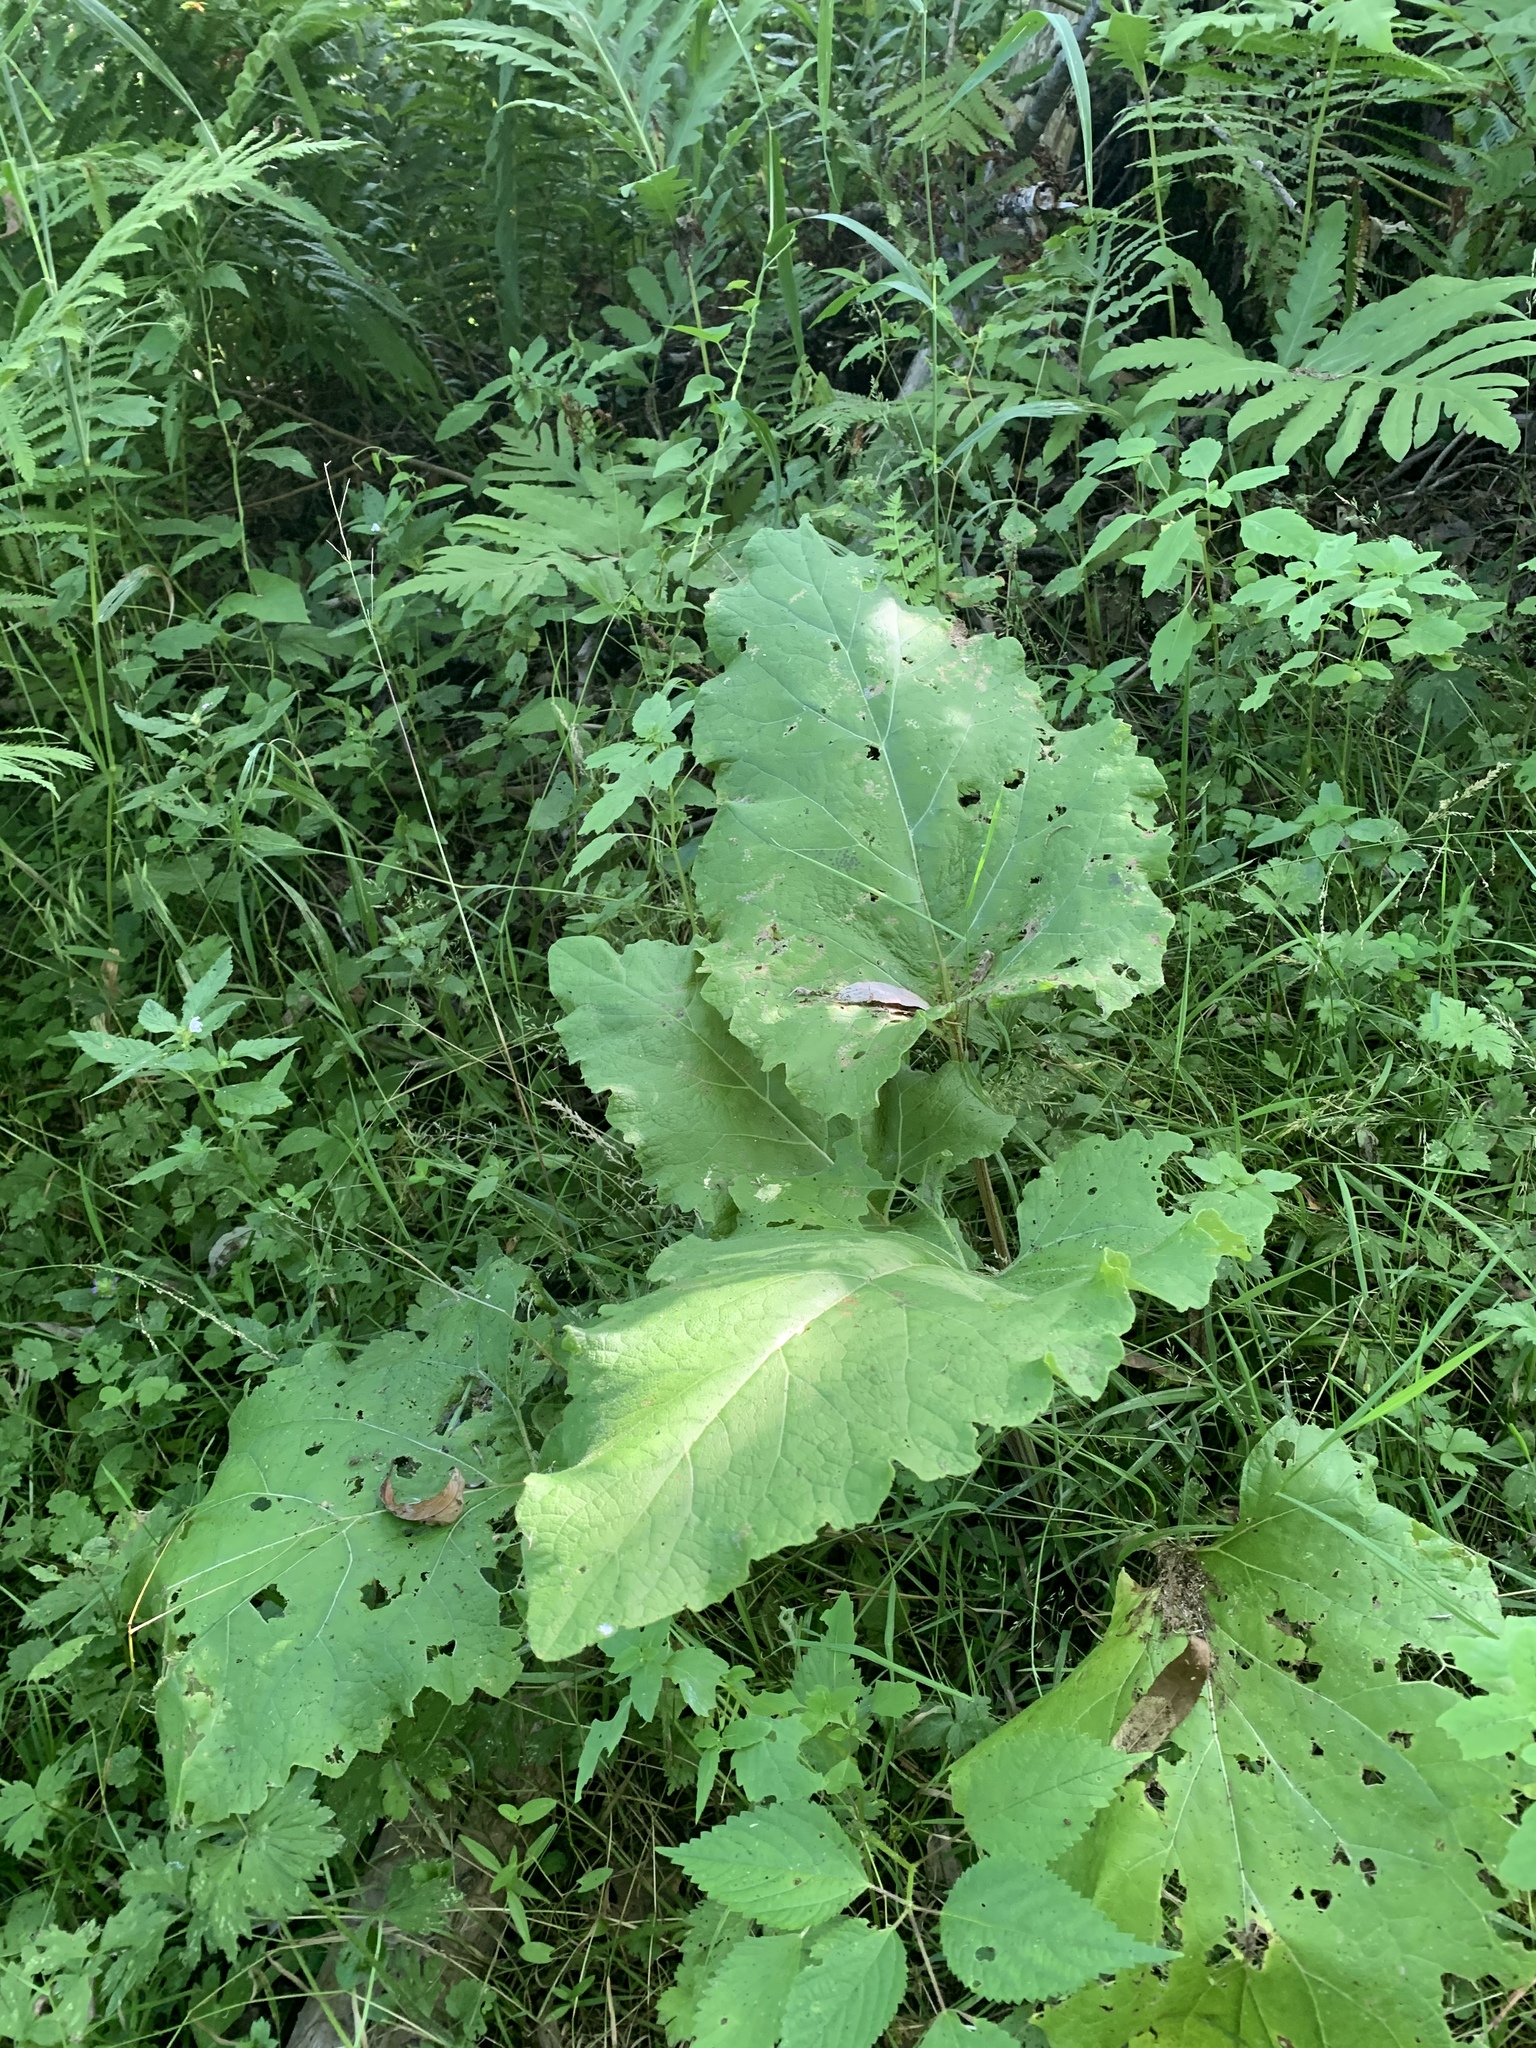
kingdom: Plantae
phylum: Tracheophyta
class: Magnoliopsida
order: Asterales
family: Asteraceae
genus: Arctium
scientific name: Arctium minus
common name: Lesser burdock
